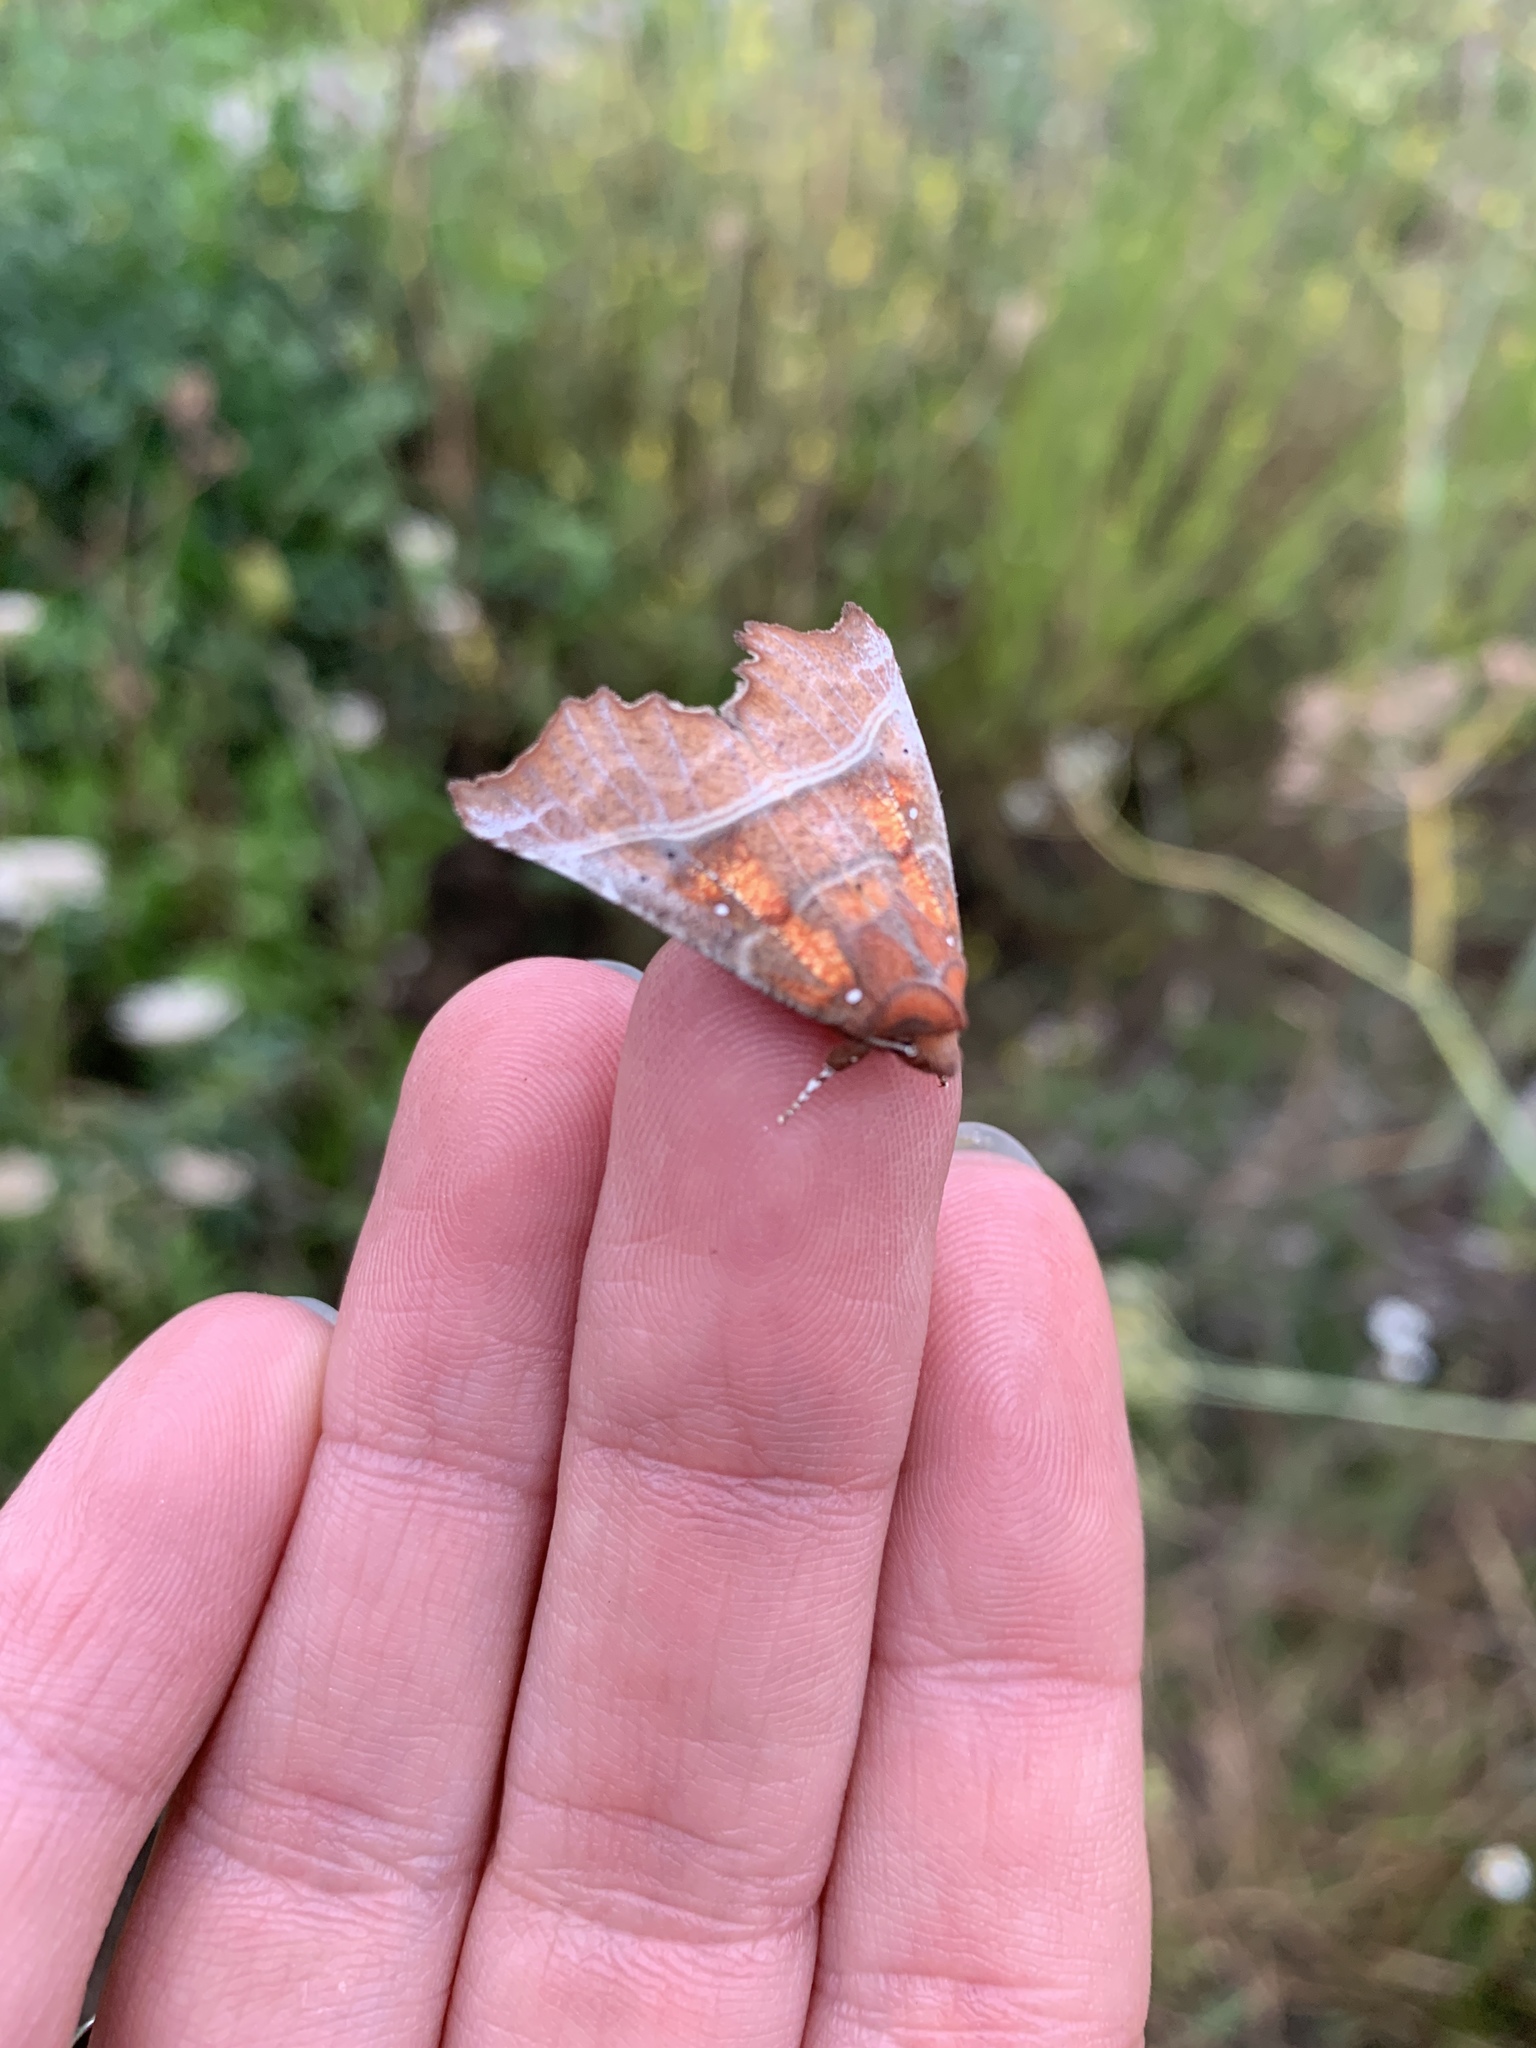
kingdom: Animalia
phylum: Arthropoda
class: Insecta
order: Lepidoptera
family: Erebidae
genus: Scoliopteryx
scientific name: Scoliopteryx libatrix
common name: Herald
